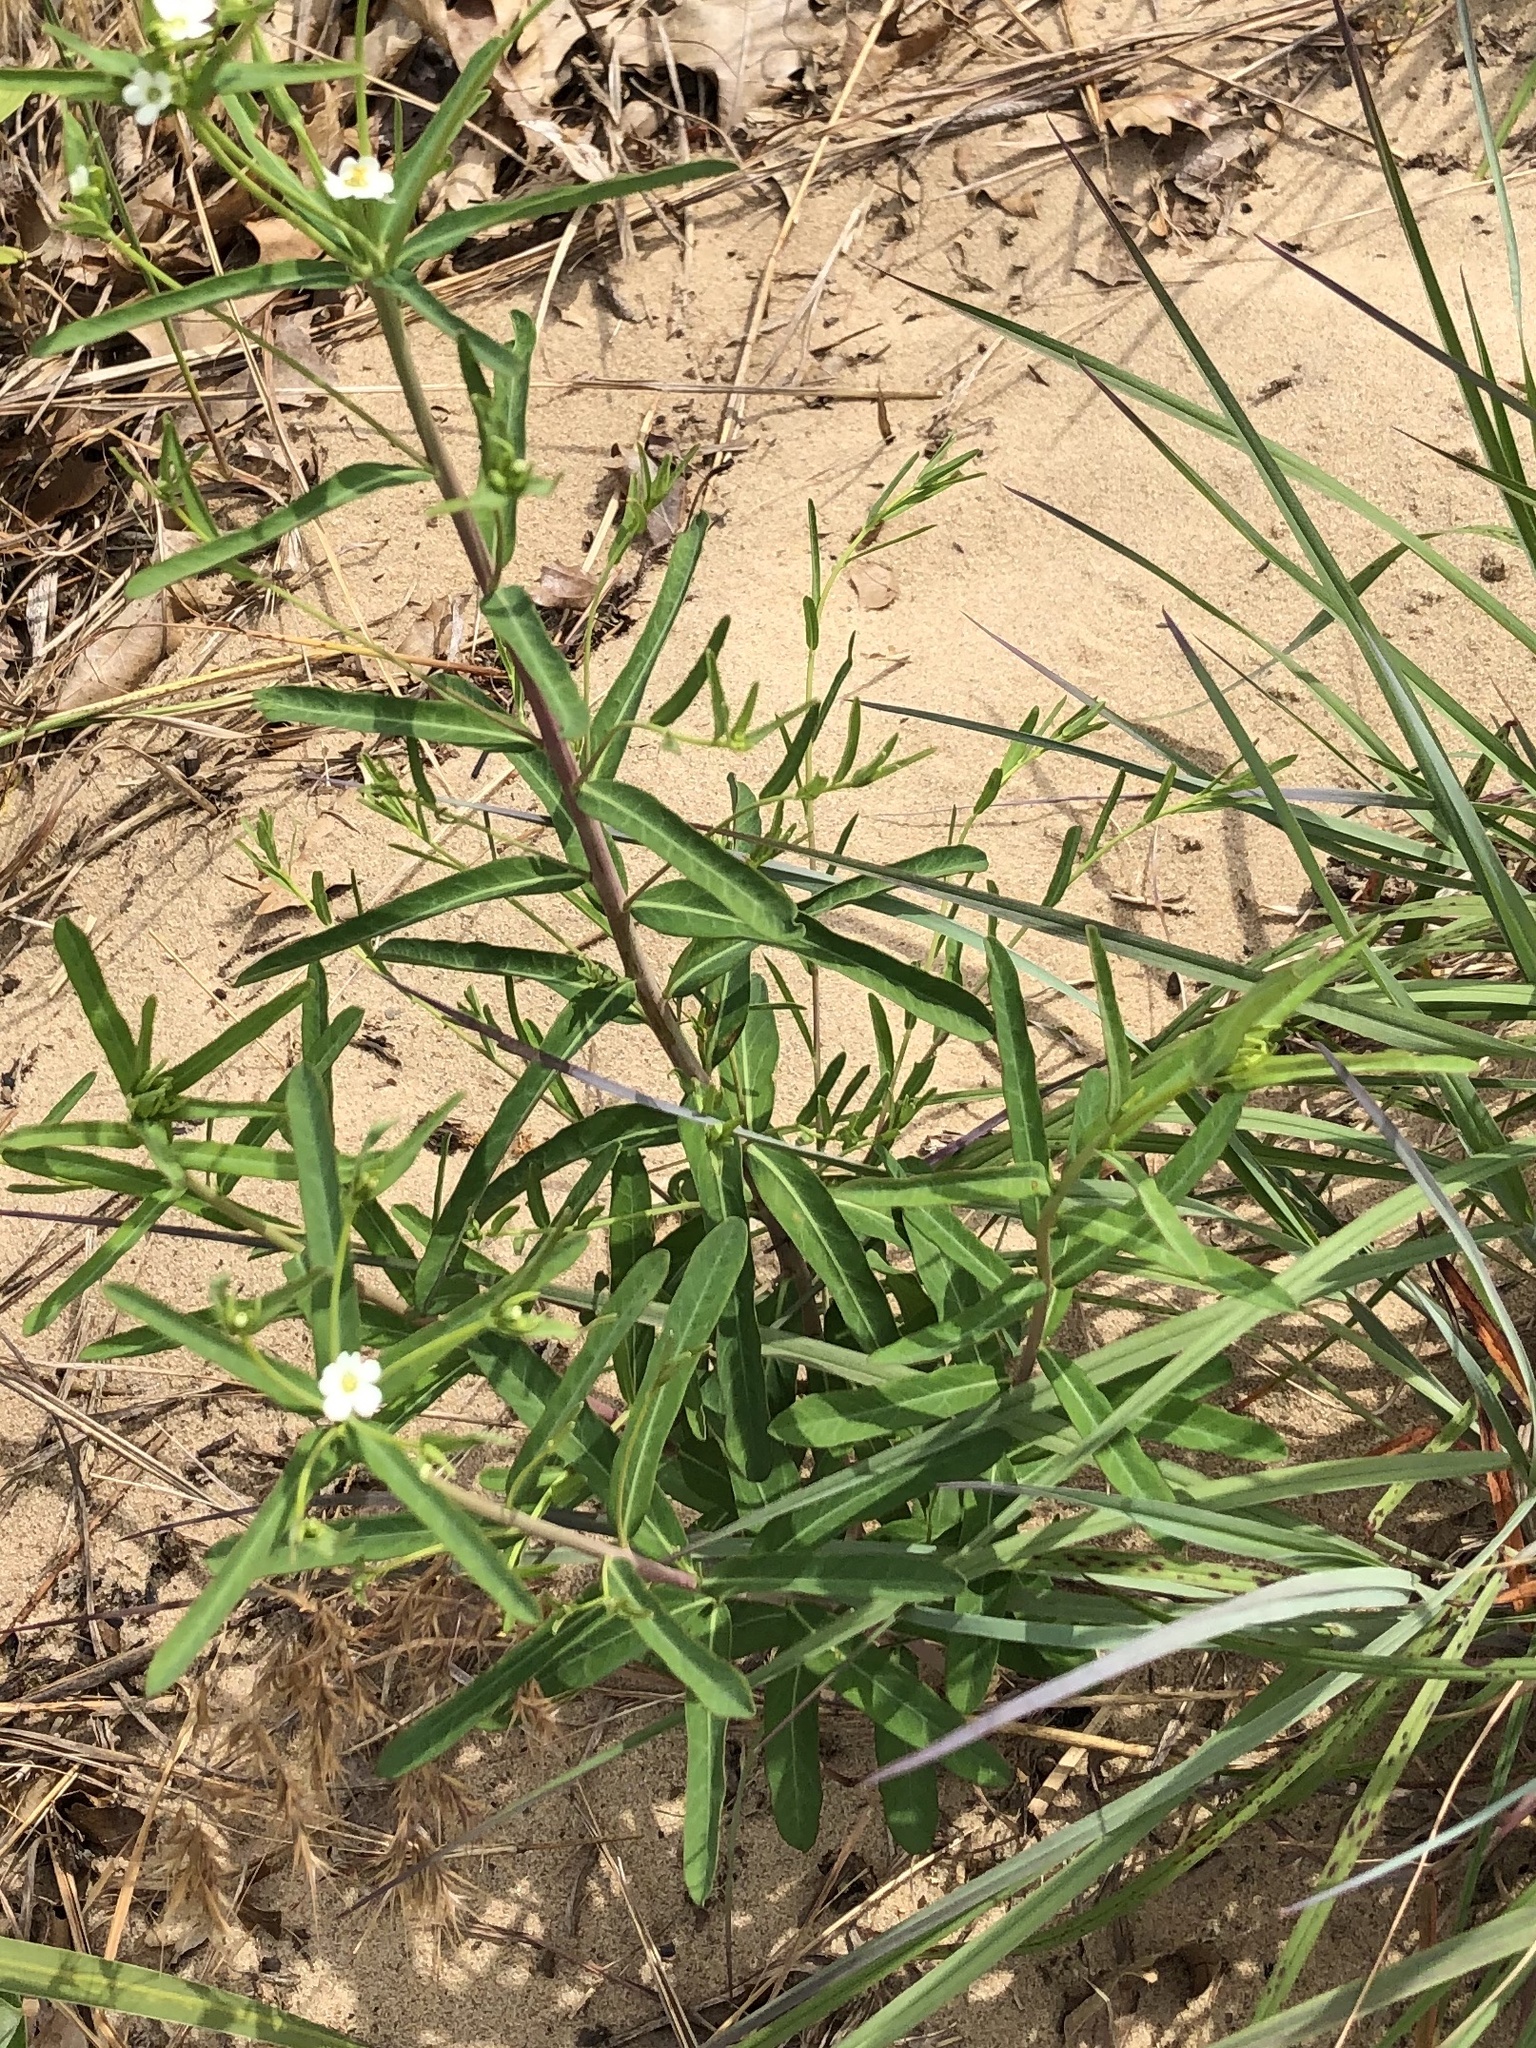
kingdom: Plantae
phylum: Tracheophyta
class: Magnoliopsida
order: Malpighiales
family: Euphorbiaceae
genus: Euphorbia
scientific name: Euphorbia corollata
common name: Flowering spurge
